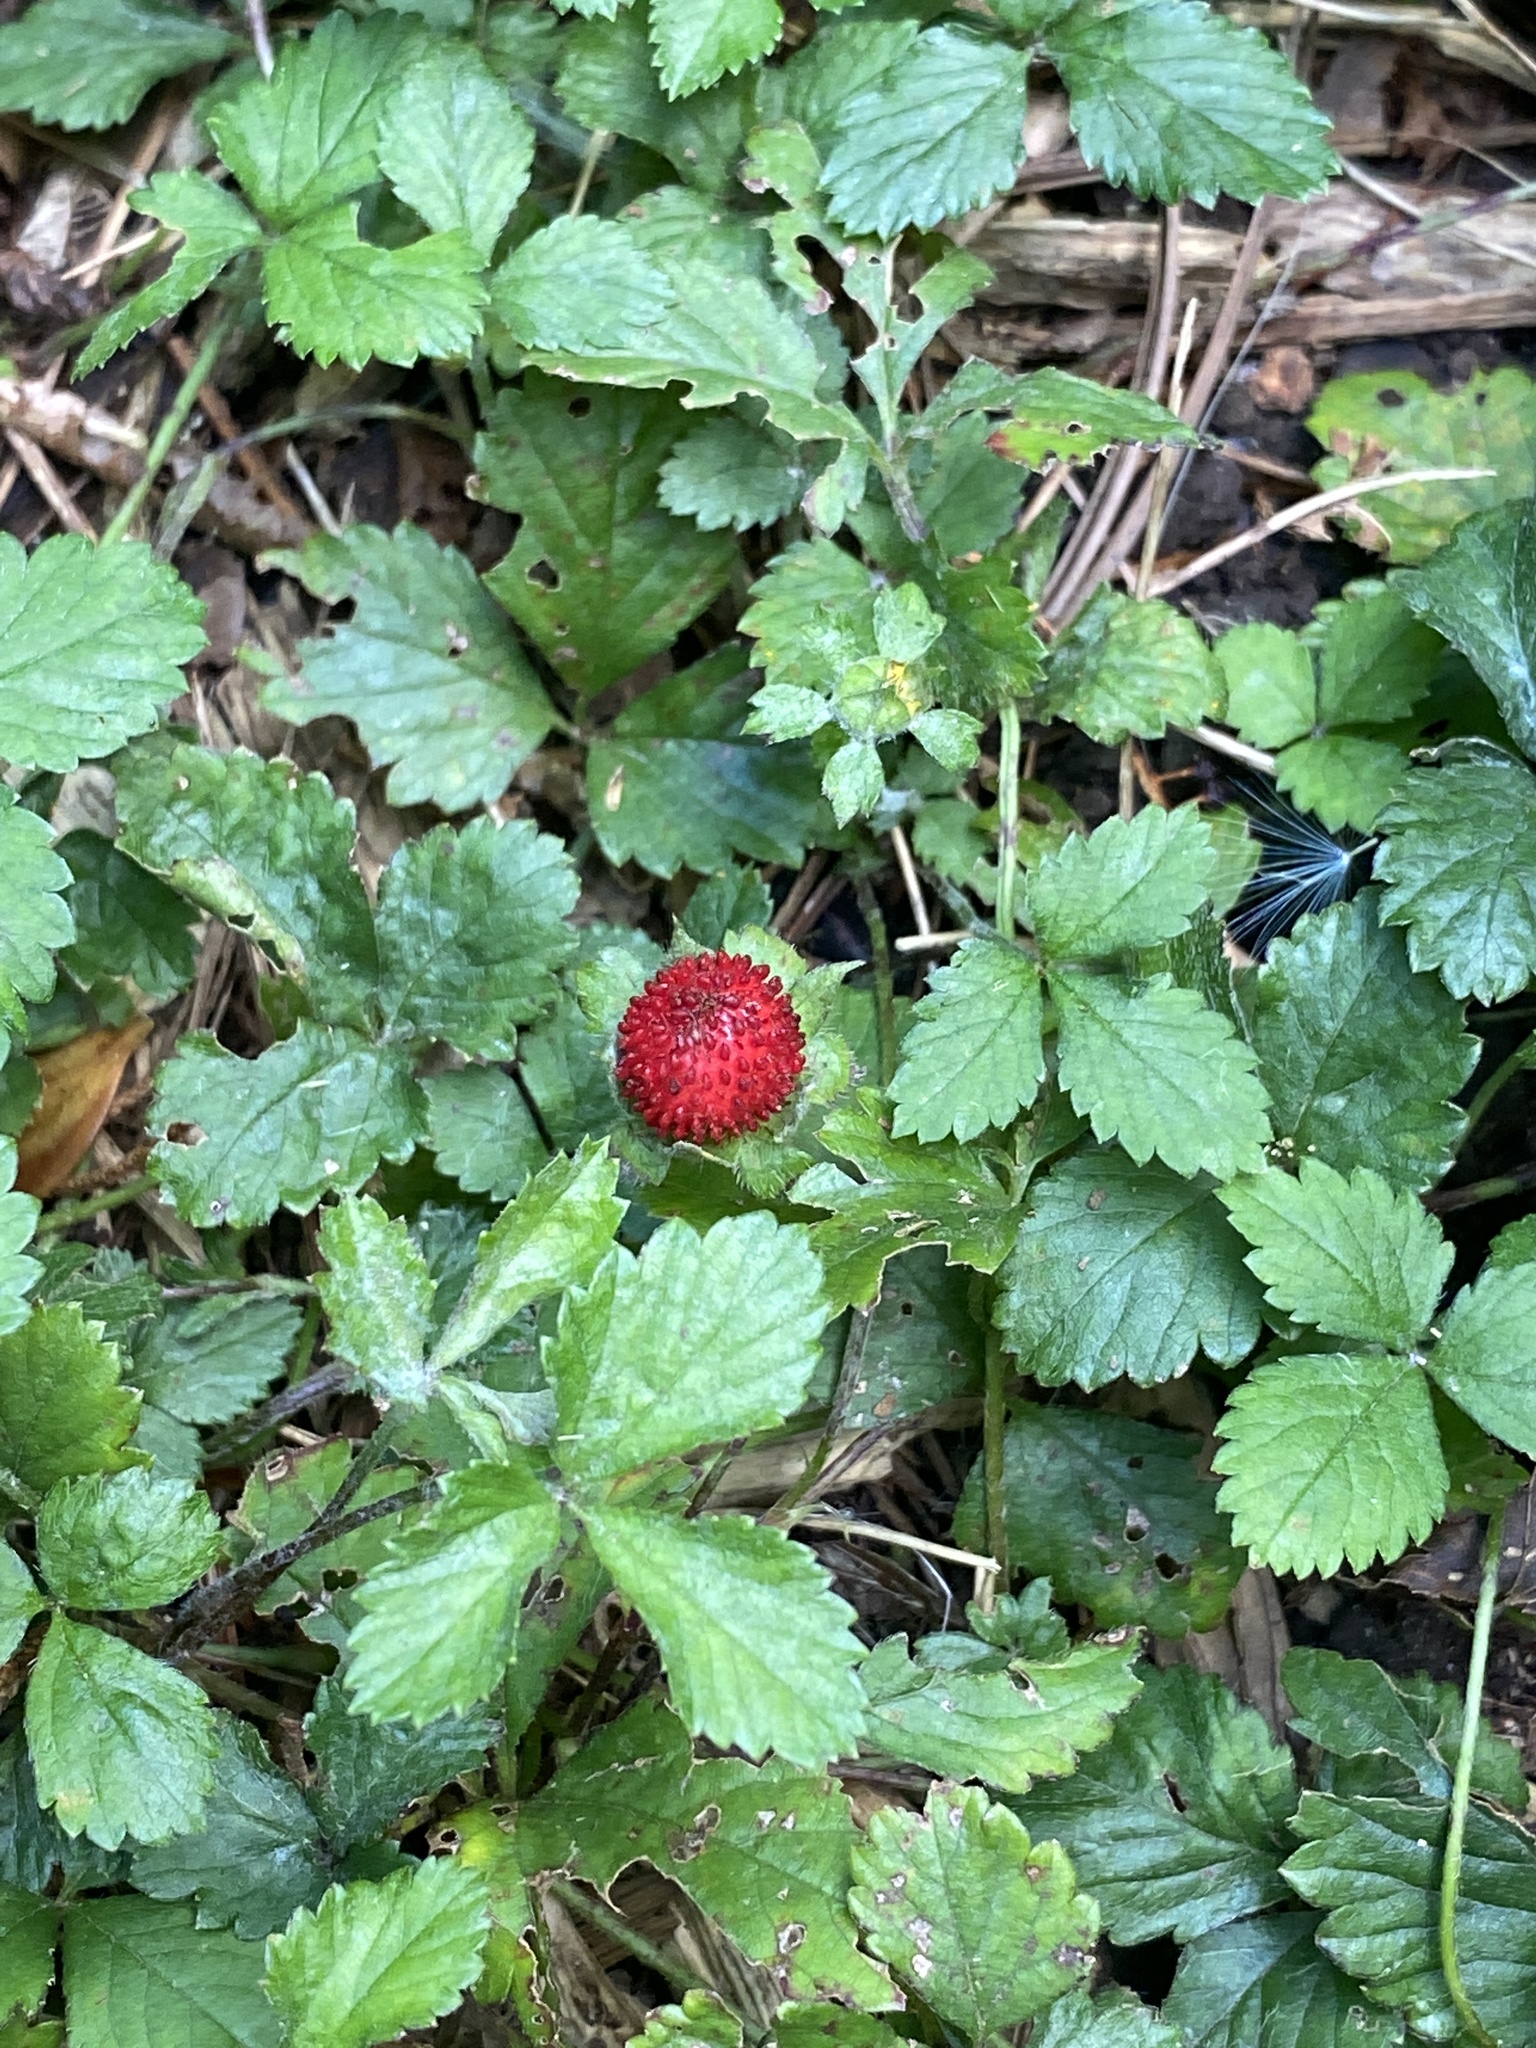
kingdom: Plantae
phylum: Tracheophyta
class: Magnoliopsida
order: Rosales
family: Rosaceae
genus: Potentilla
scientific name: Potentilla indica
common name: Yellow-flowered strawberry
